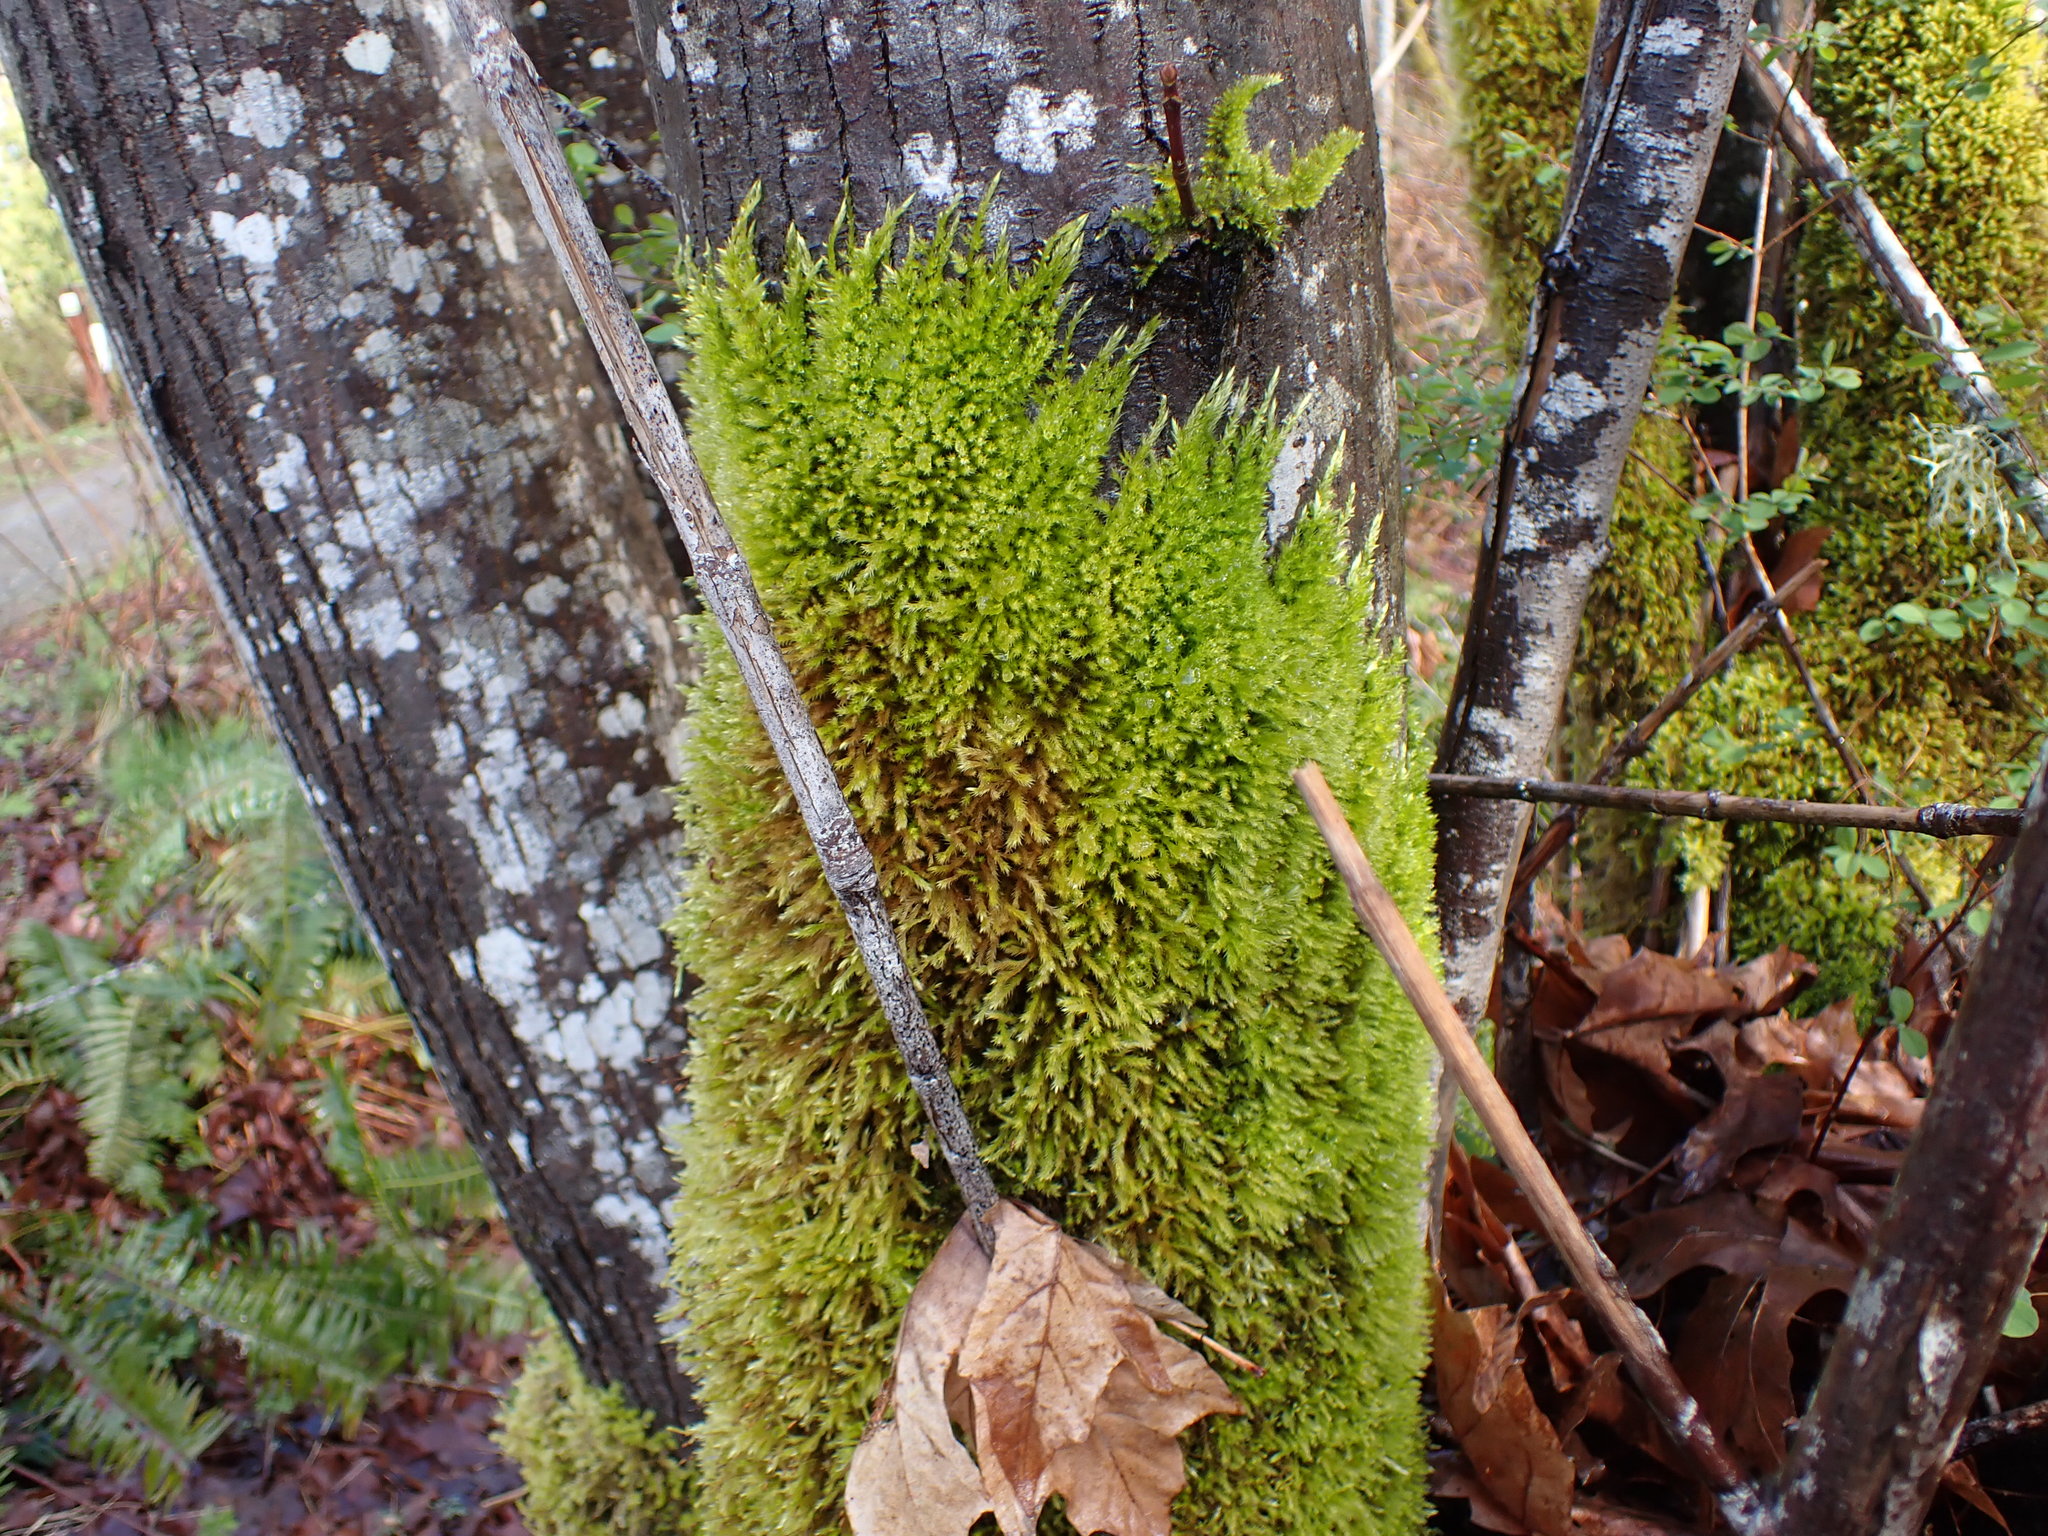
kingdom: Plantae
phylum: Bryophyta
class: Bryopsida
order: Hypnales
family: Brachytheciaceae
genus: Homalothecium
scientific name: Homalothecium fulgescens
